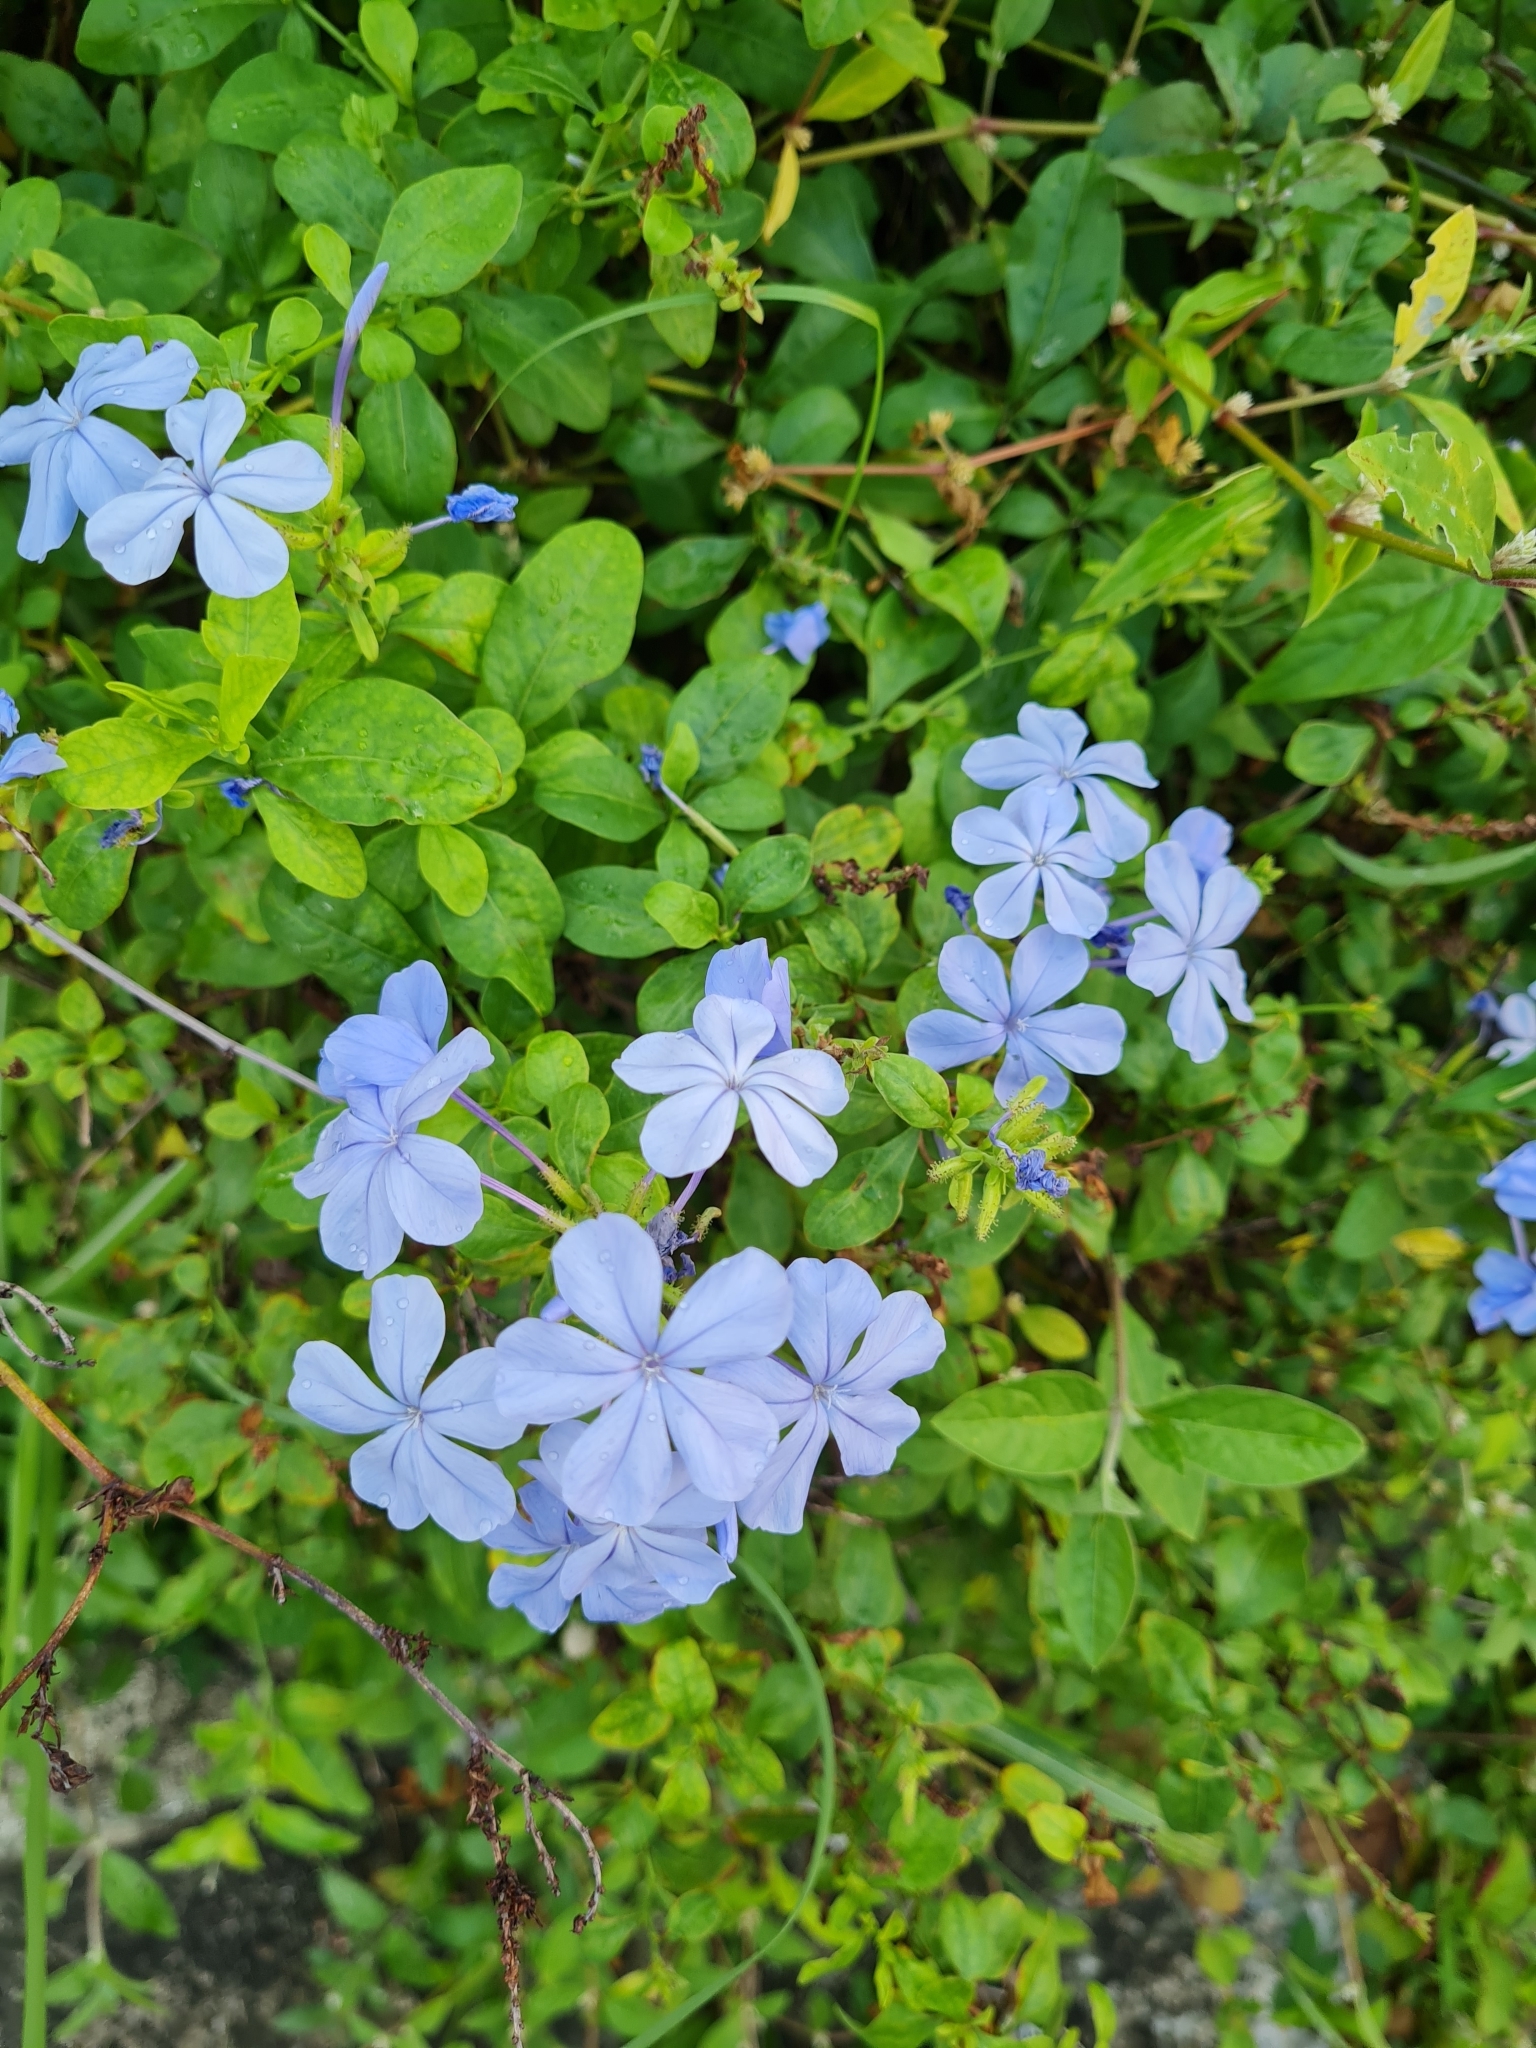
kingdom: Plantae
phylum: Tracheophyta
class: Magnoliopsida
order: Caryophyllales
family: Plumbaginaceae
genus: Plumbago
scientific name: Plumbago auriculata
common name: Cape leadwort
